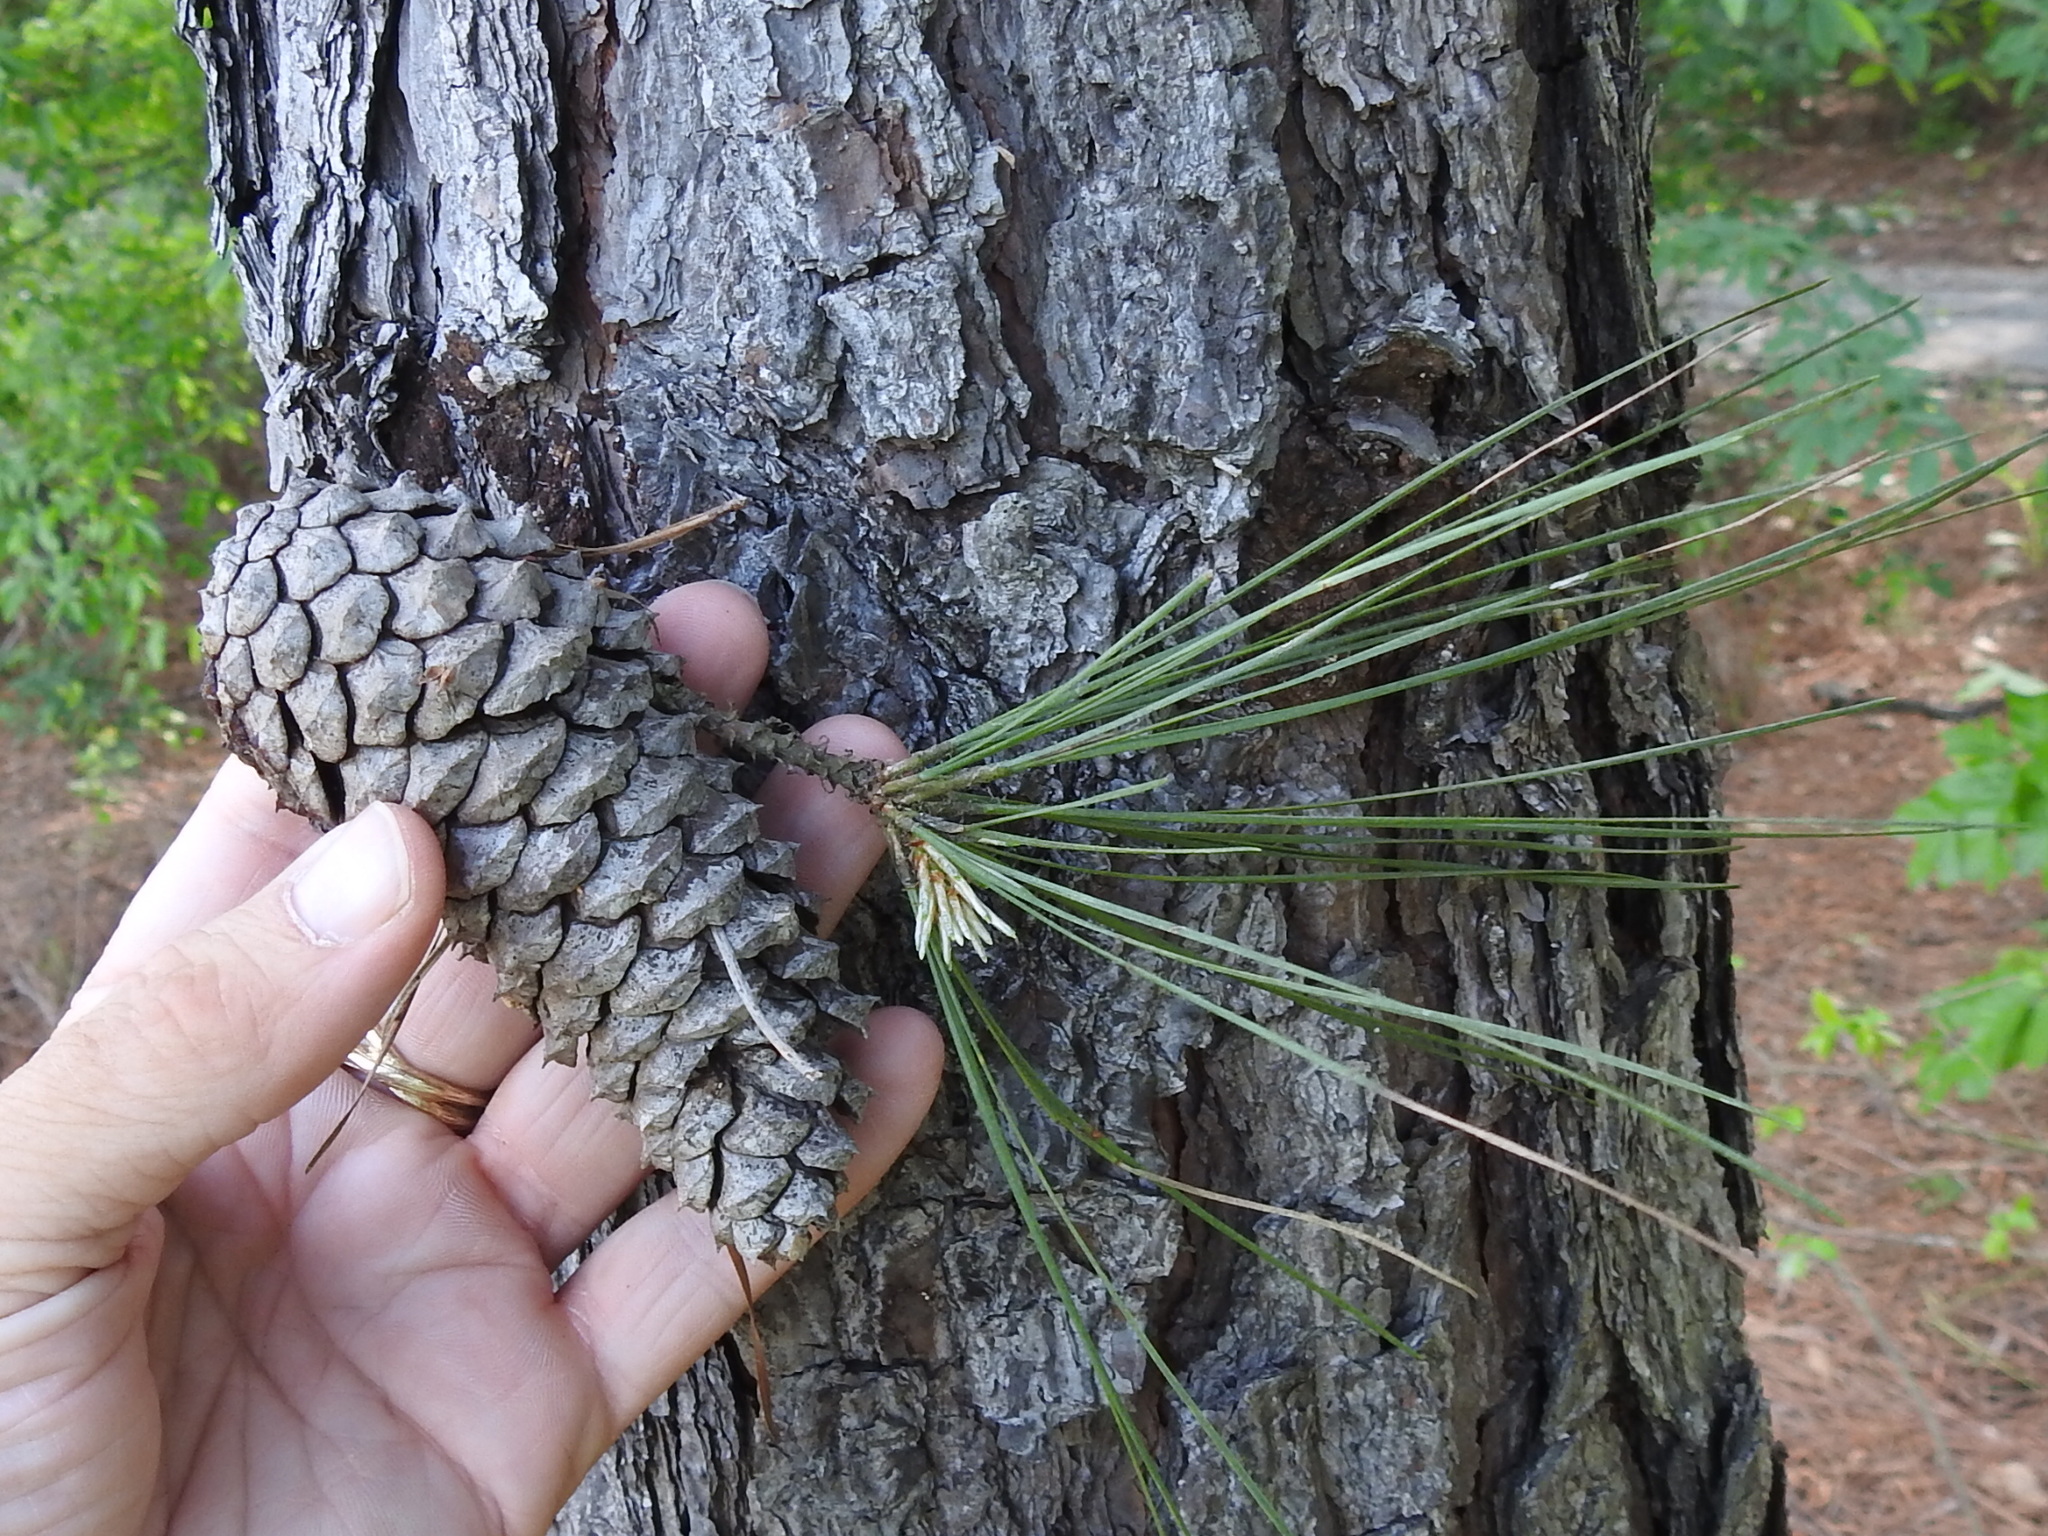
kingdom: Plantae
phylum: Tracheophyta
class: Pinopsida
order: Pinales
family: Pinaceae
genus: Pinus
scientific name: Pinus taeda
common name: Loblolly pine
